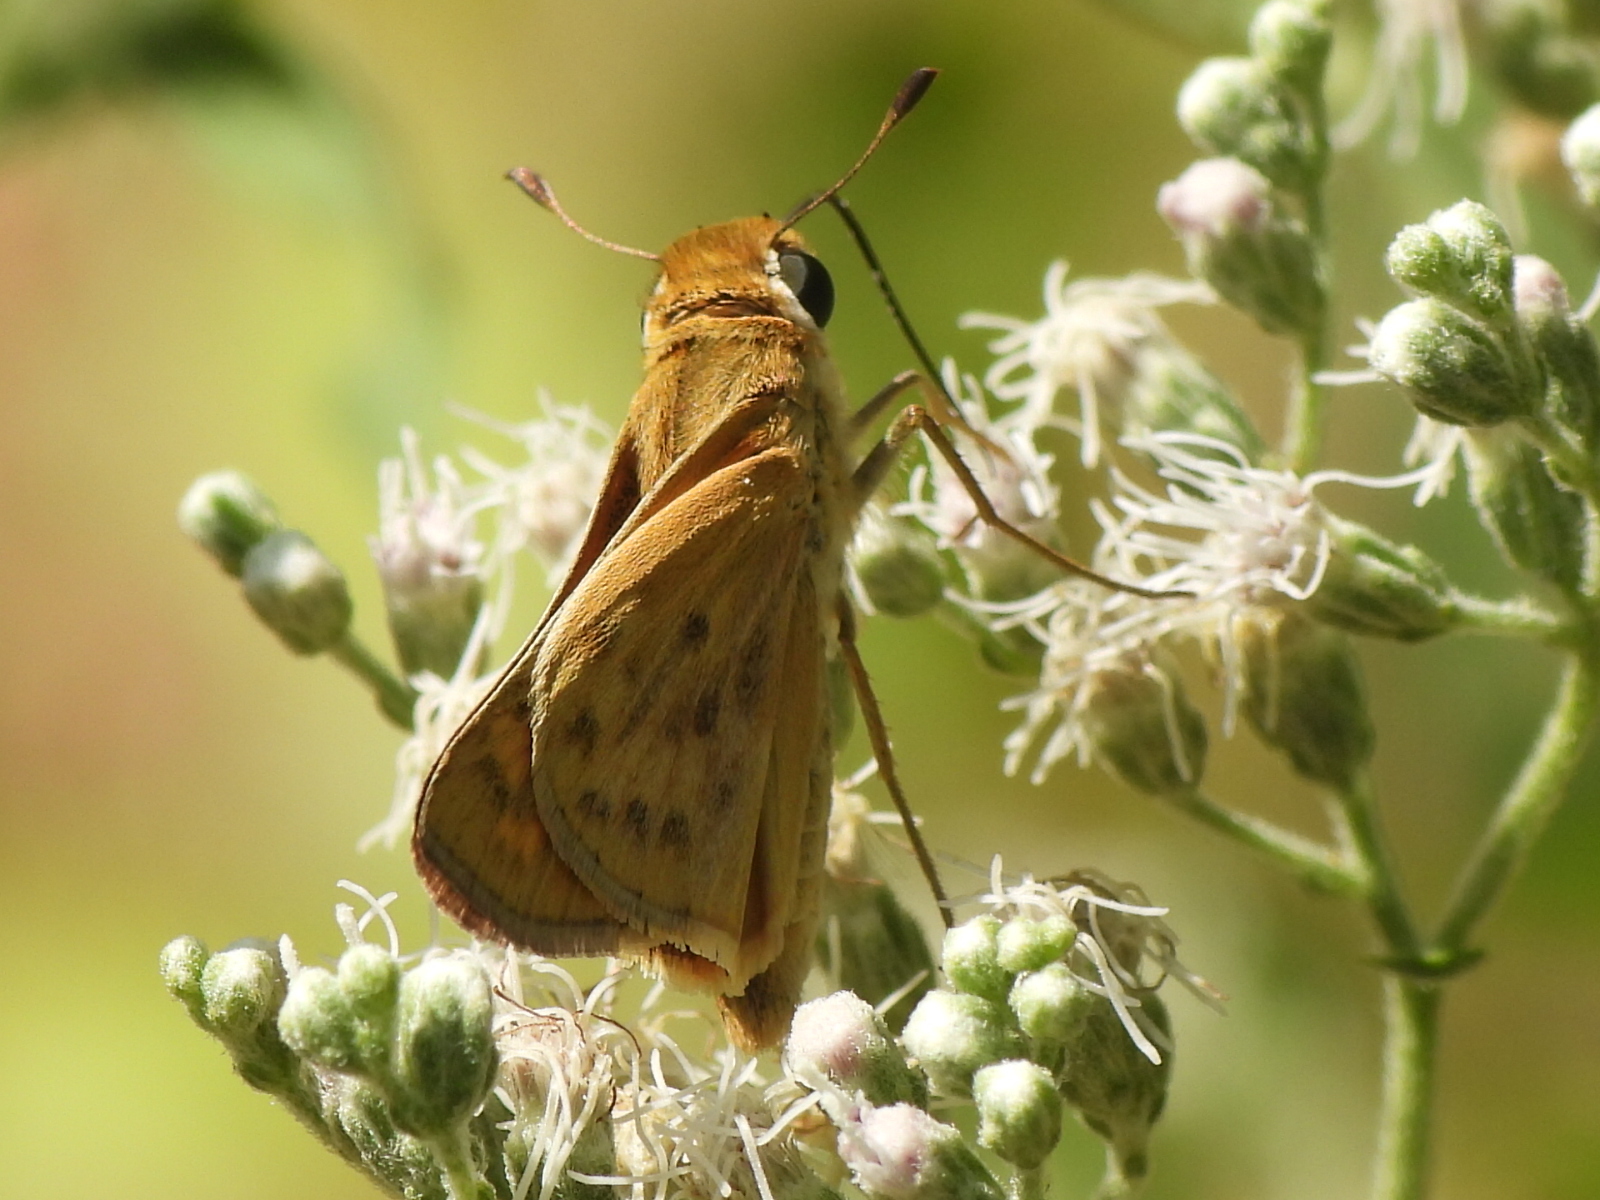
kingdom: Animalia
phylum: Arthropoda
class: Insecta
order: Lepidoptera
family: Hesperiidae
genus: Hylephila
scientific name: Hylephila phyleus
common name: Fiery skipper
